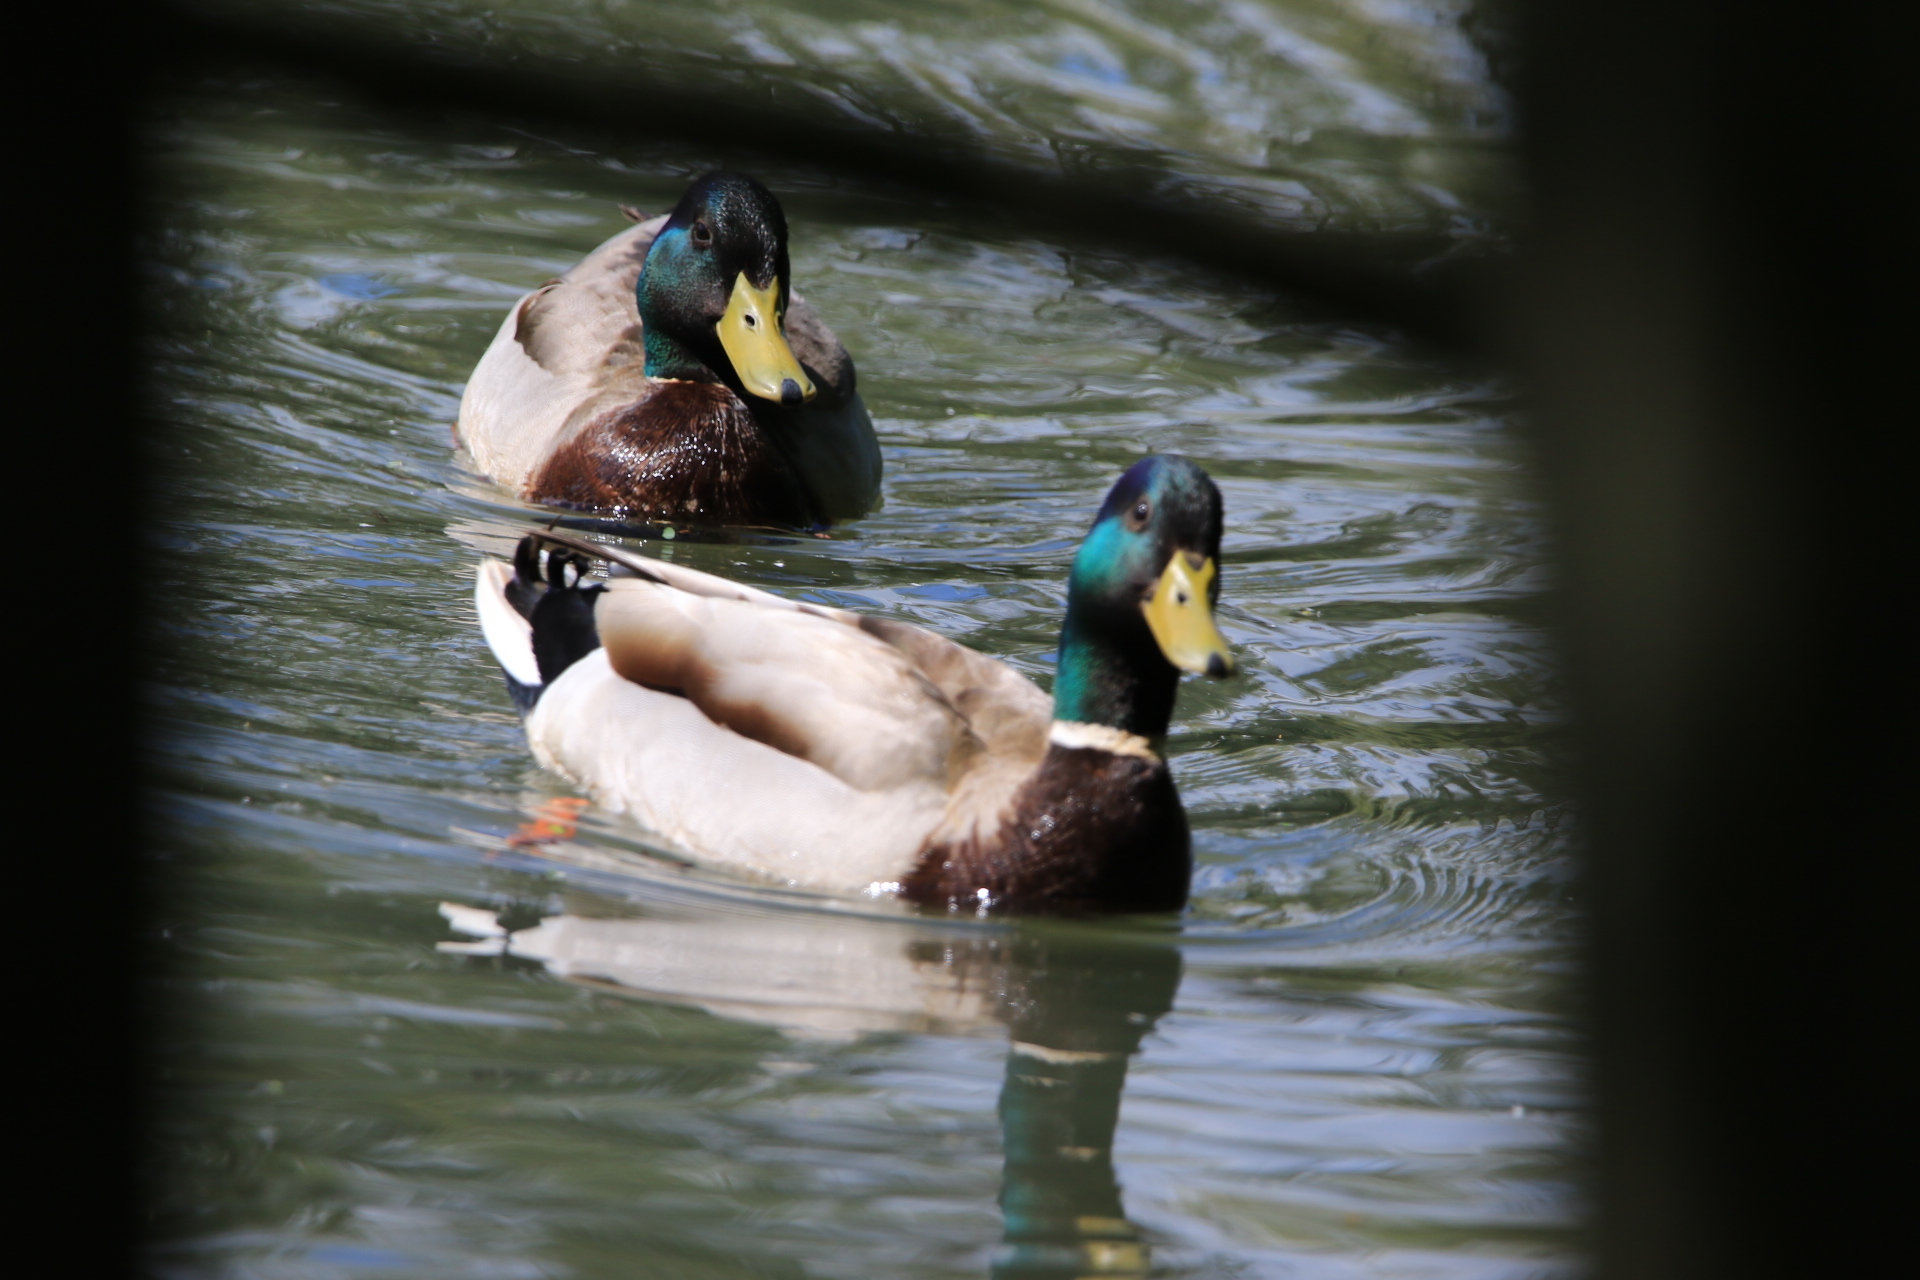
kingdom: Animalia
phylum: Chordata
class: Aves
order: Anseriformes
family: Anatidae
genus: Anas
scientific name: Anas platyrhynchos
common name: Mallard
